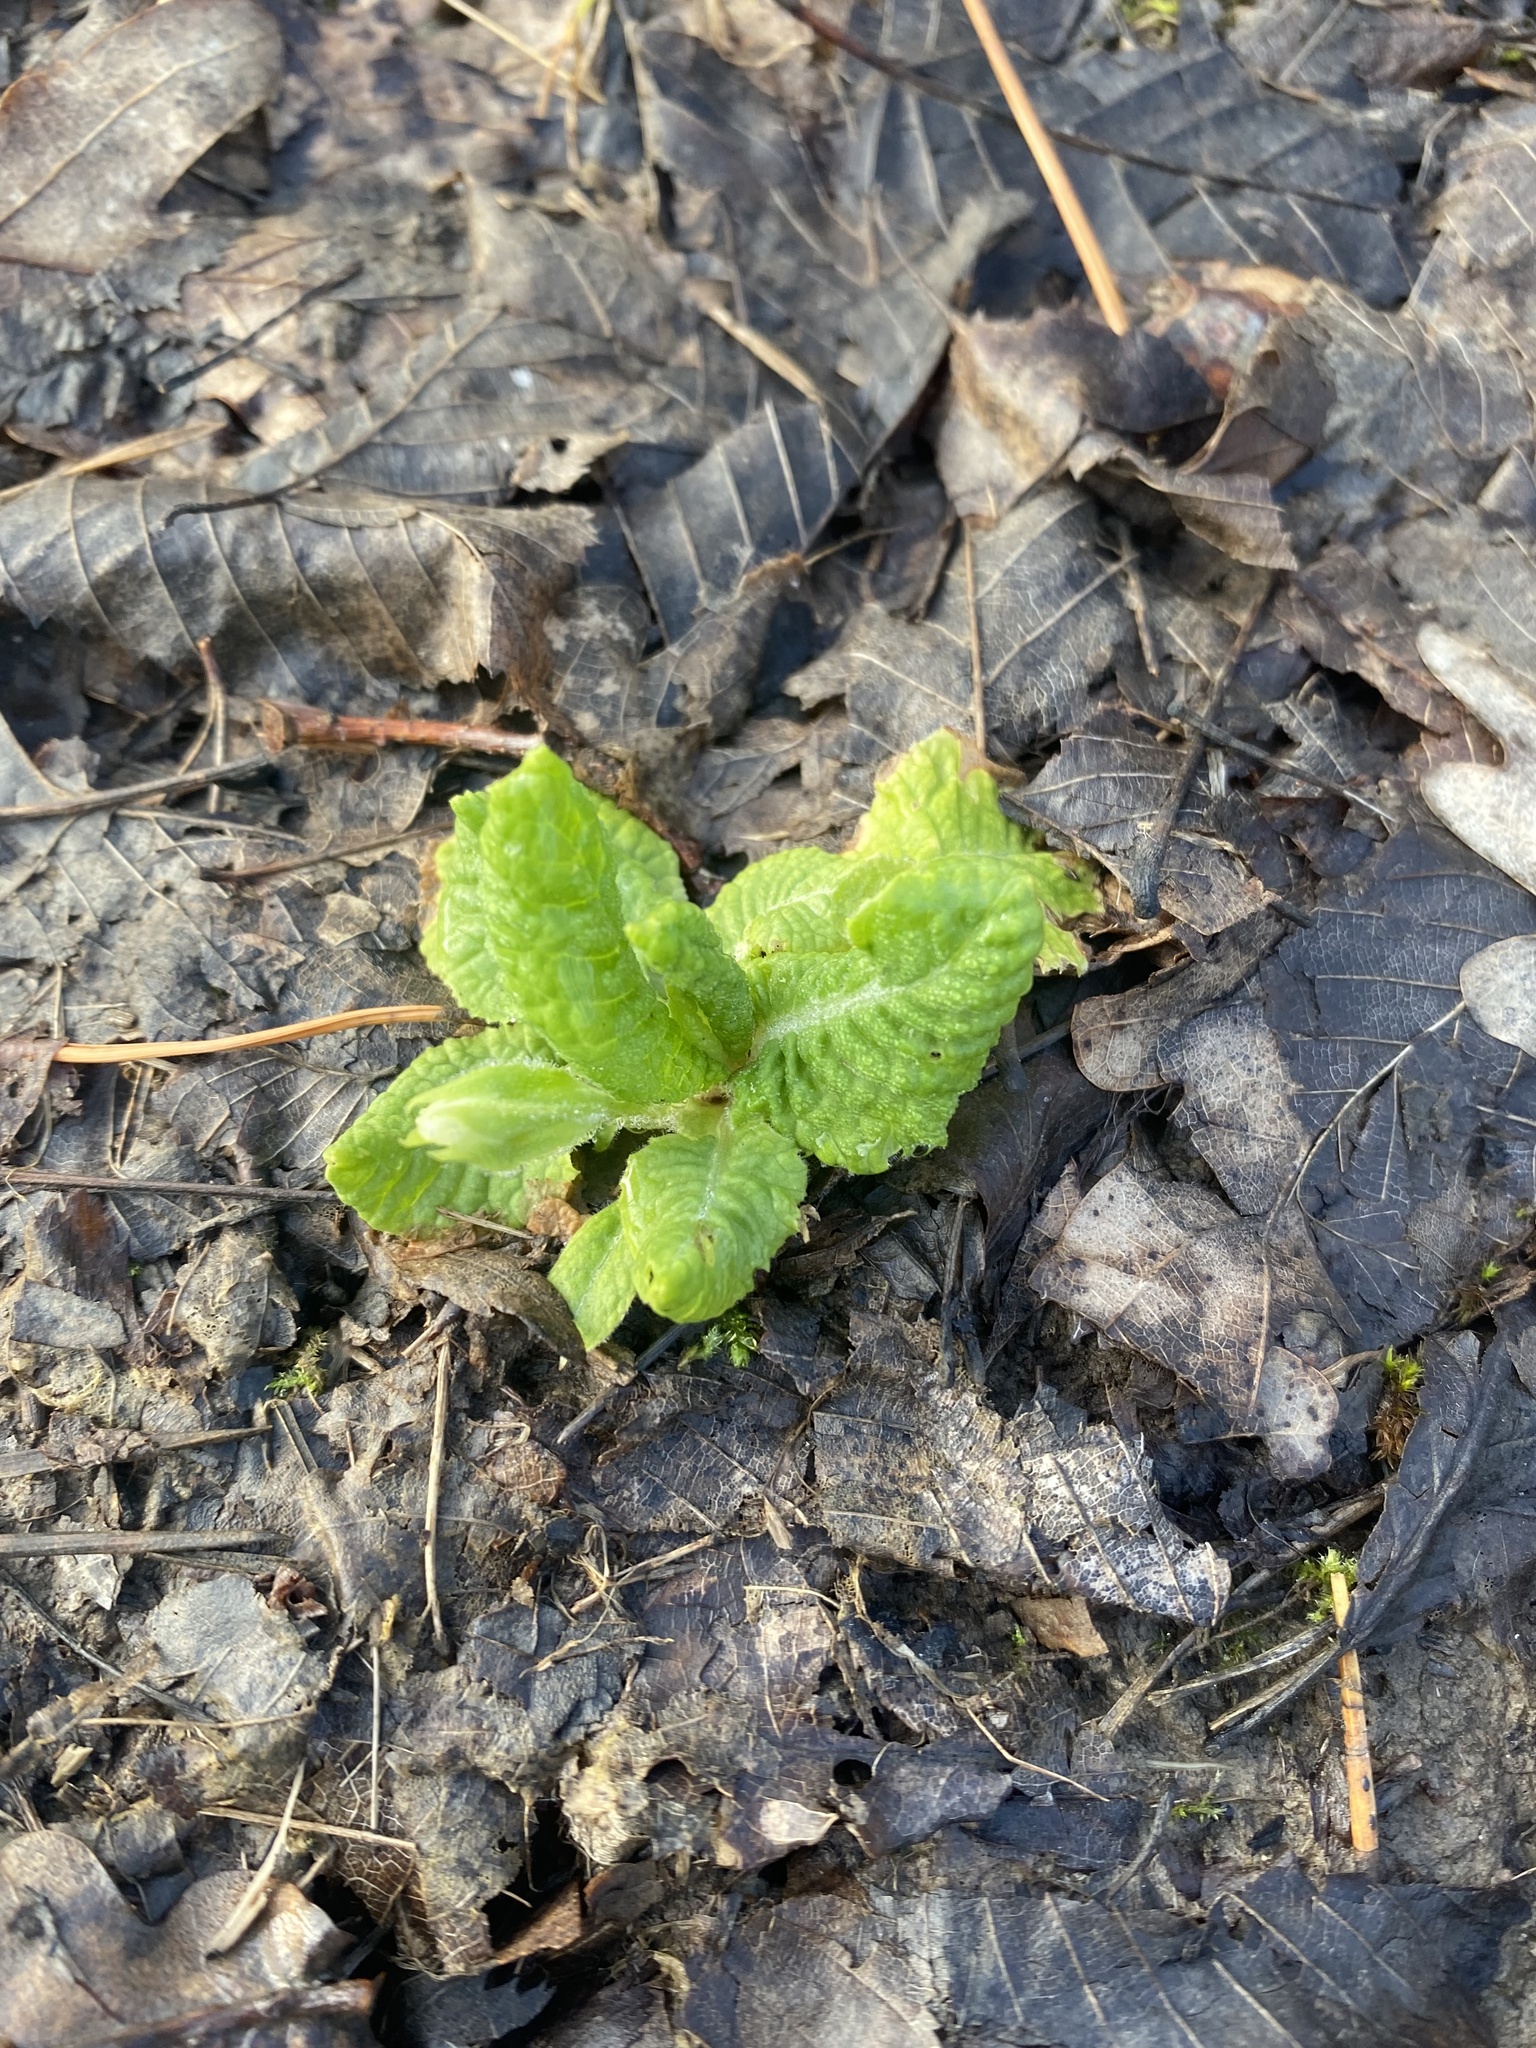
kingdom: Plantae
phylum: Tracheophyta
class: Magnoliopsida
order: Ericales
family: Primulaceae
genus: Primula
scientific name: Primula vulgaris
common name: Primrose
